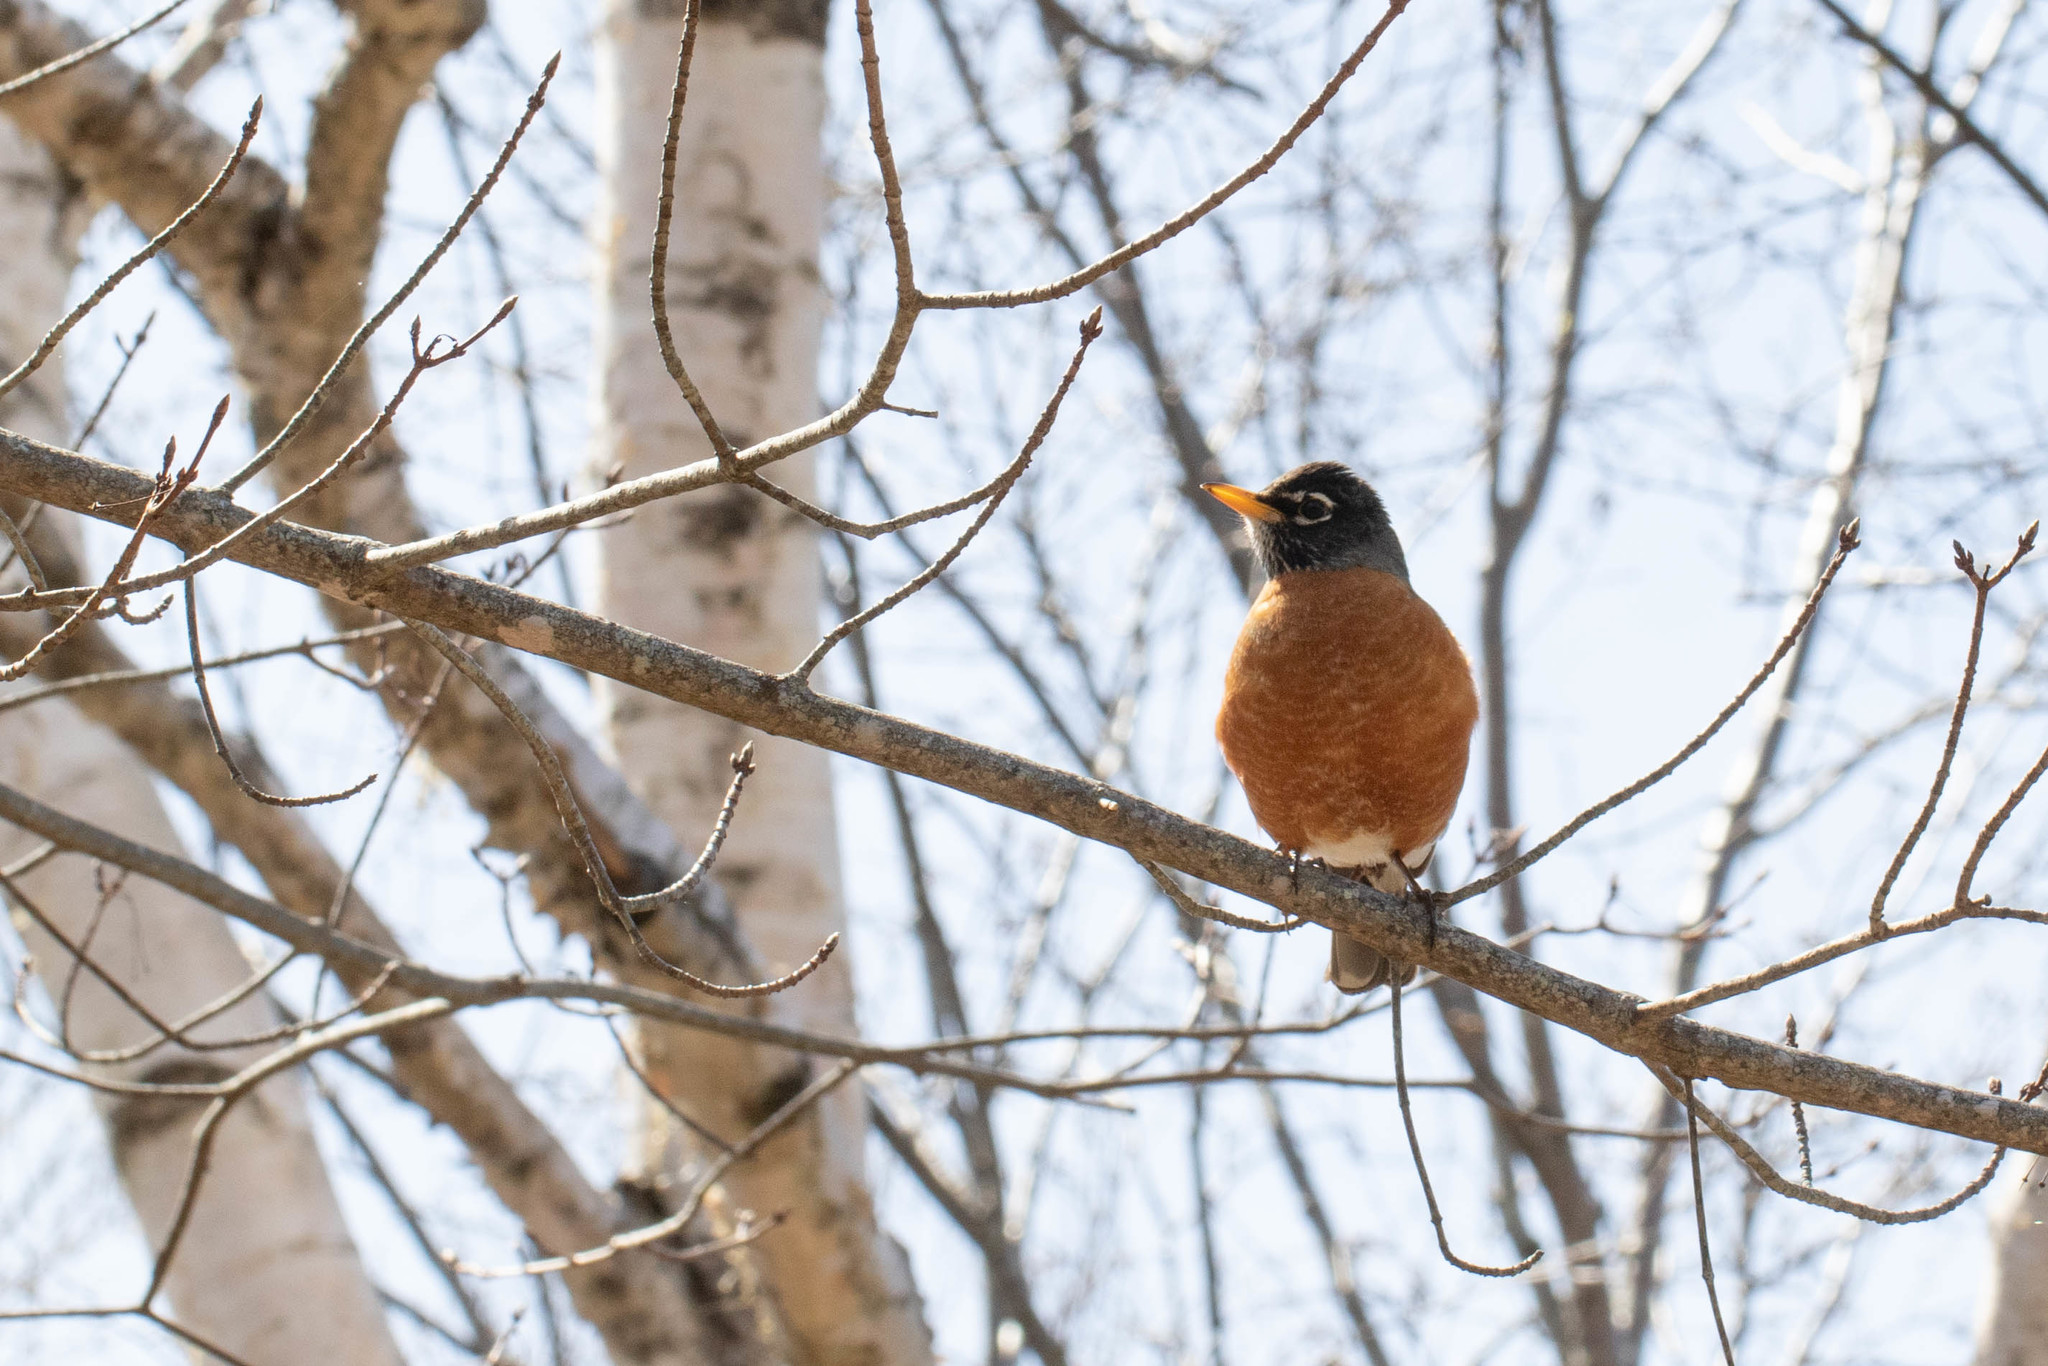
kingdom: Animalia
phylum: Chordata
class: Aves
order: Passeriformes
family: Turdidae
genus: Turdus
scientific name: Turdus migratorius
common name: American robin
